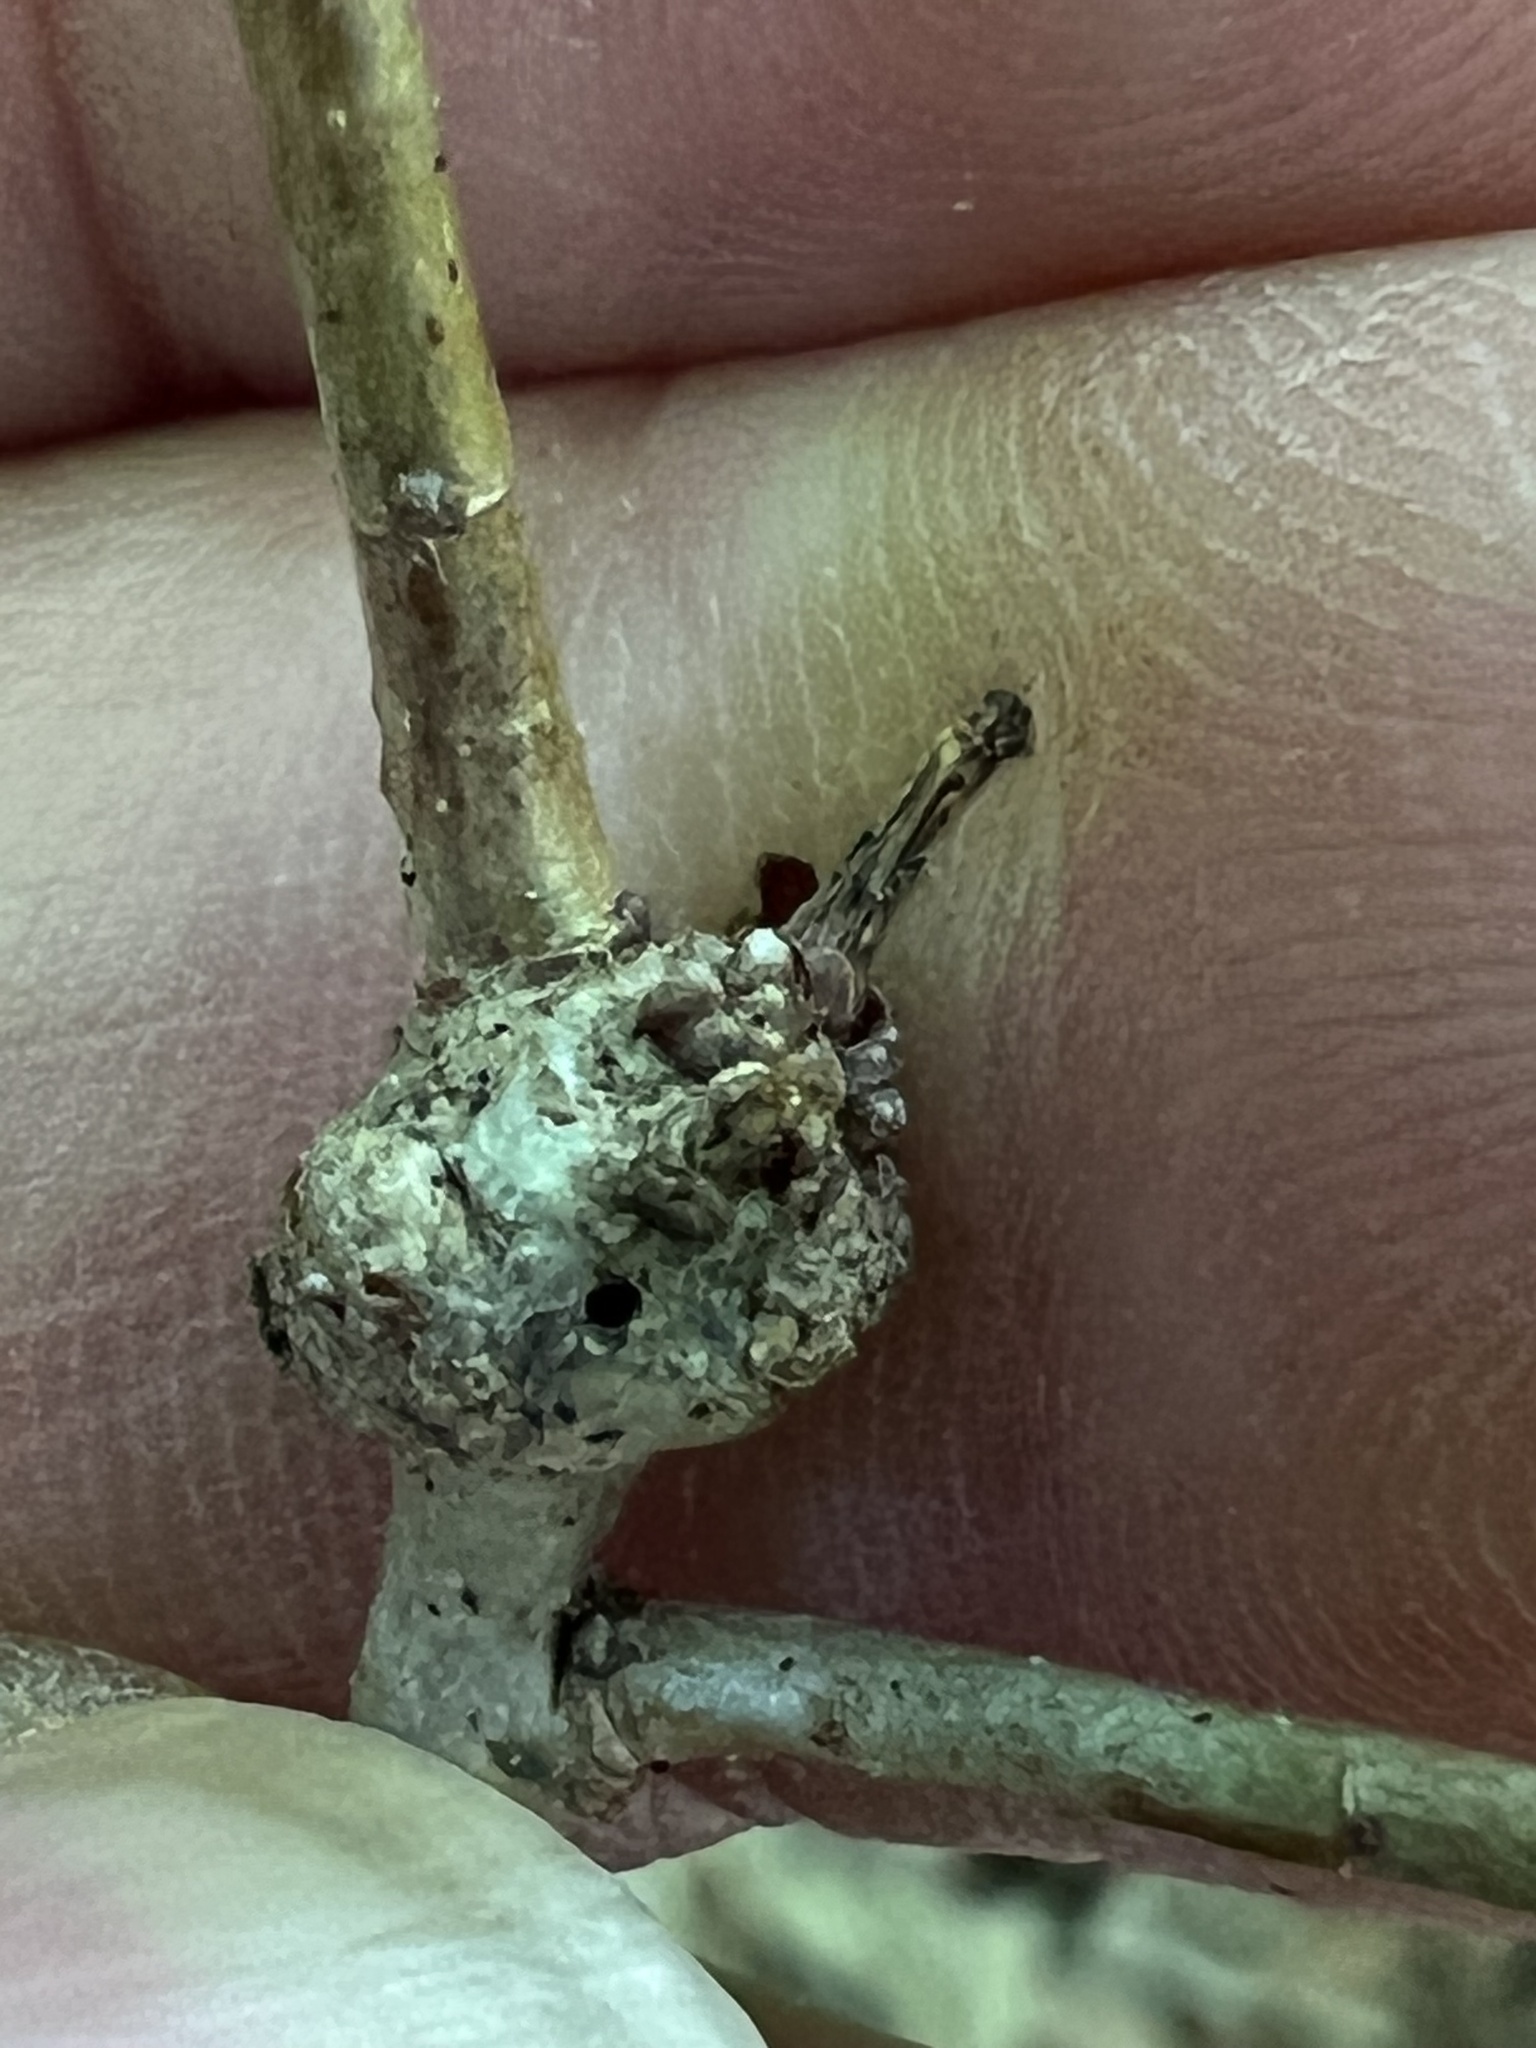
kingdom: Animalia
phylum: Arthropoda
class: Insecta
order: Hymenoptera
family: Cynipidae
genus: Loxaulus
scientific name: Loxaulus
